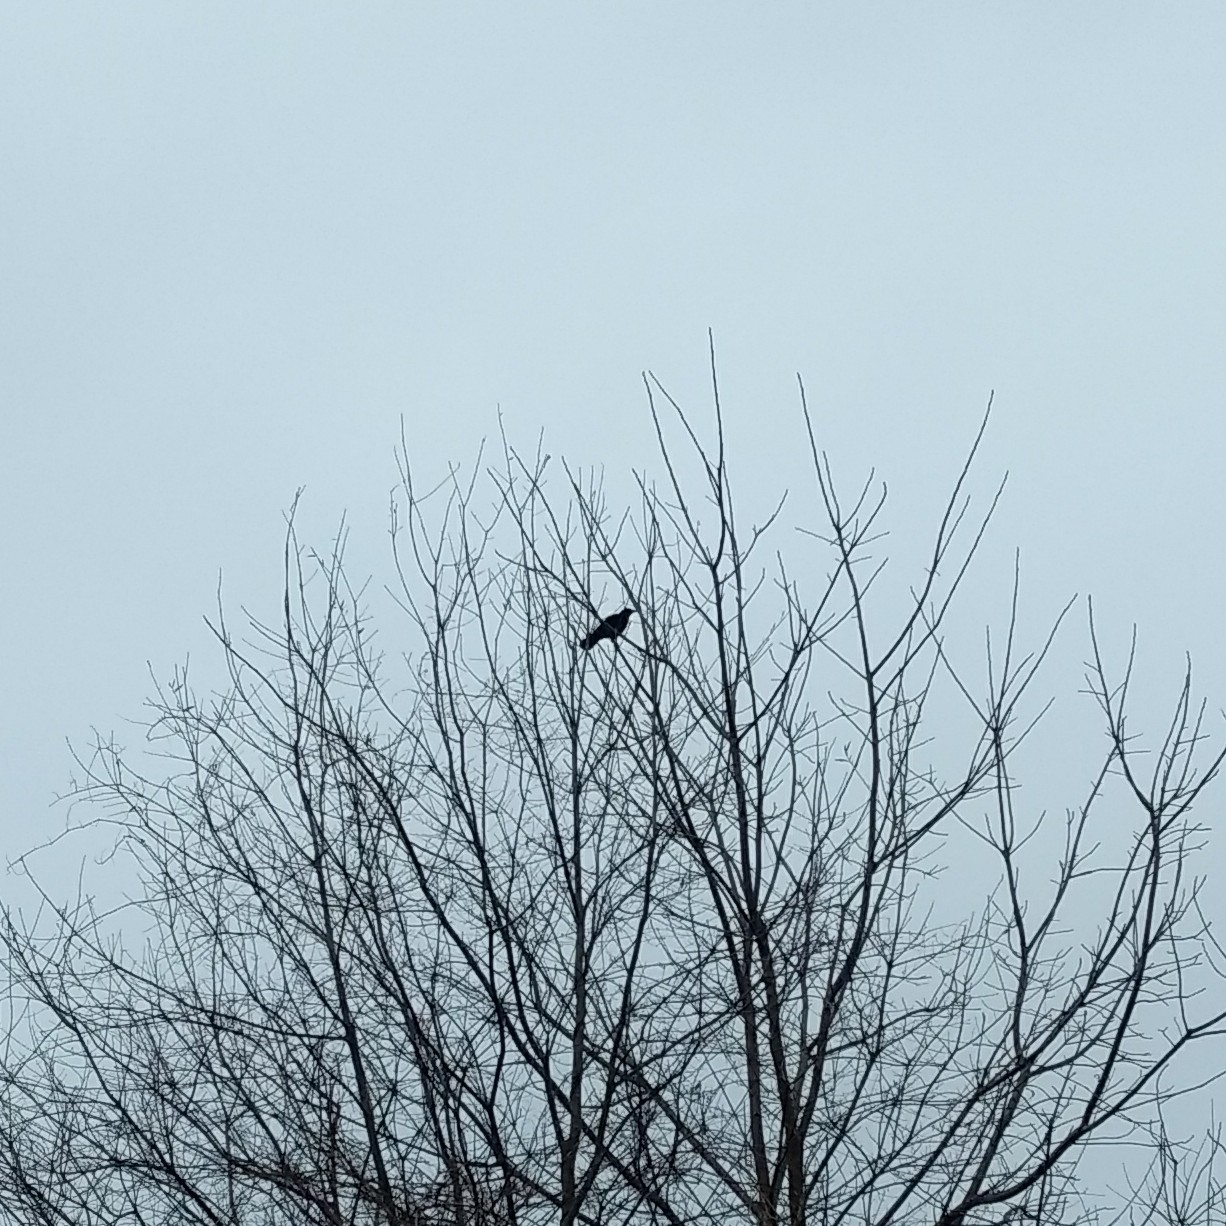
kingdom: Animalia
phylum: Chordata
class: Aves
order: Passeriformes
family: Corvidae
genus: Corvus
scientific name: Corvus brachyrhynchos
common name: American crow
